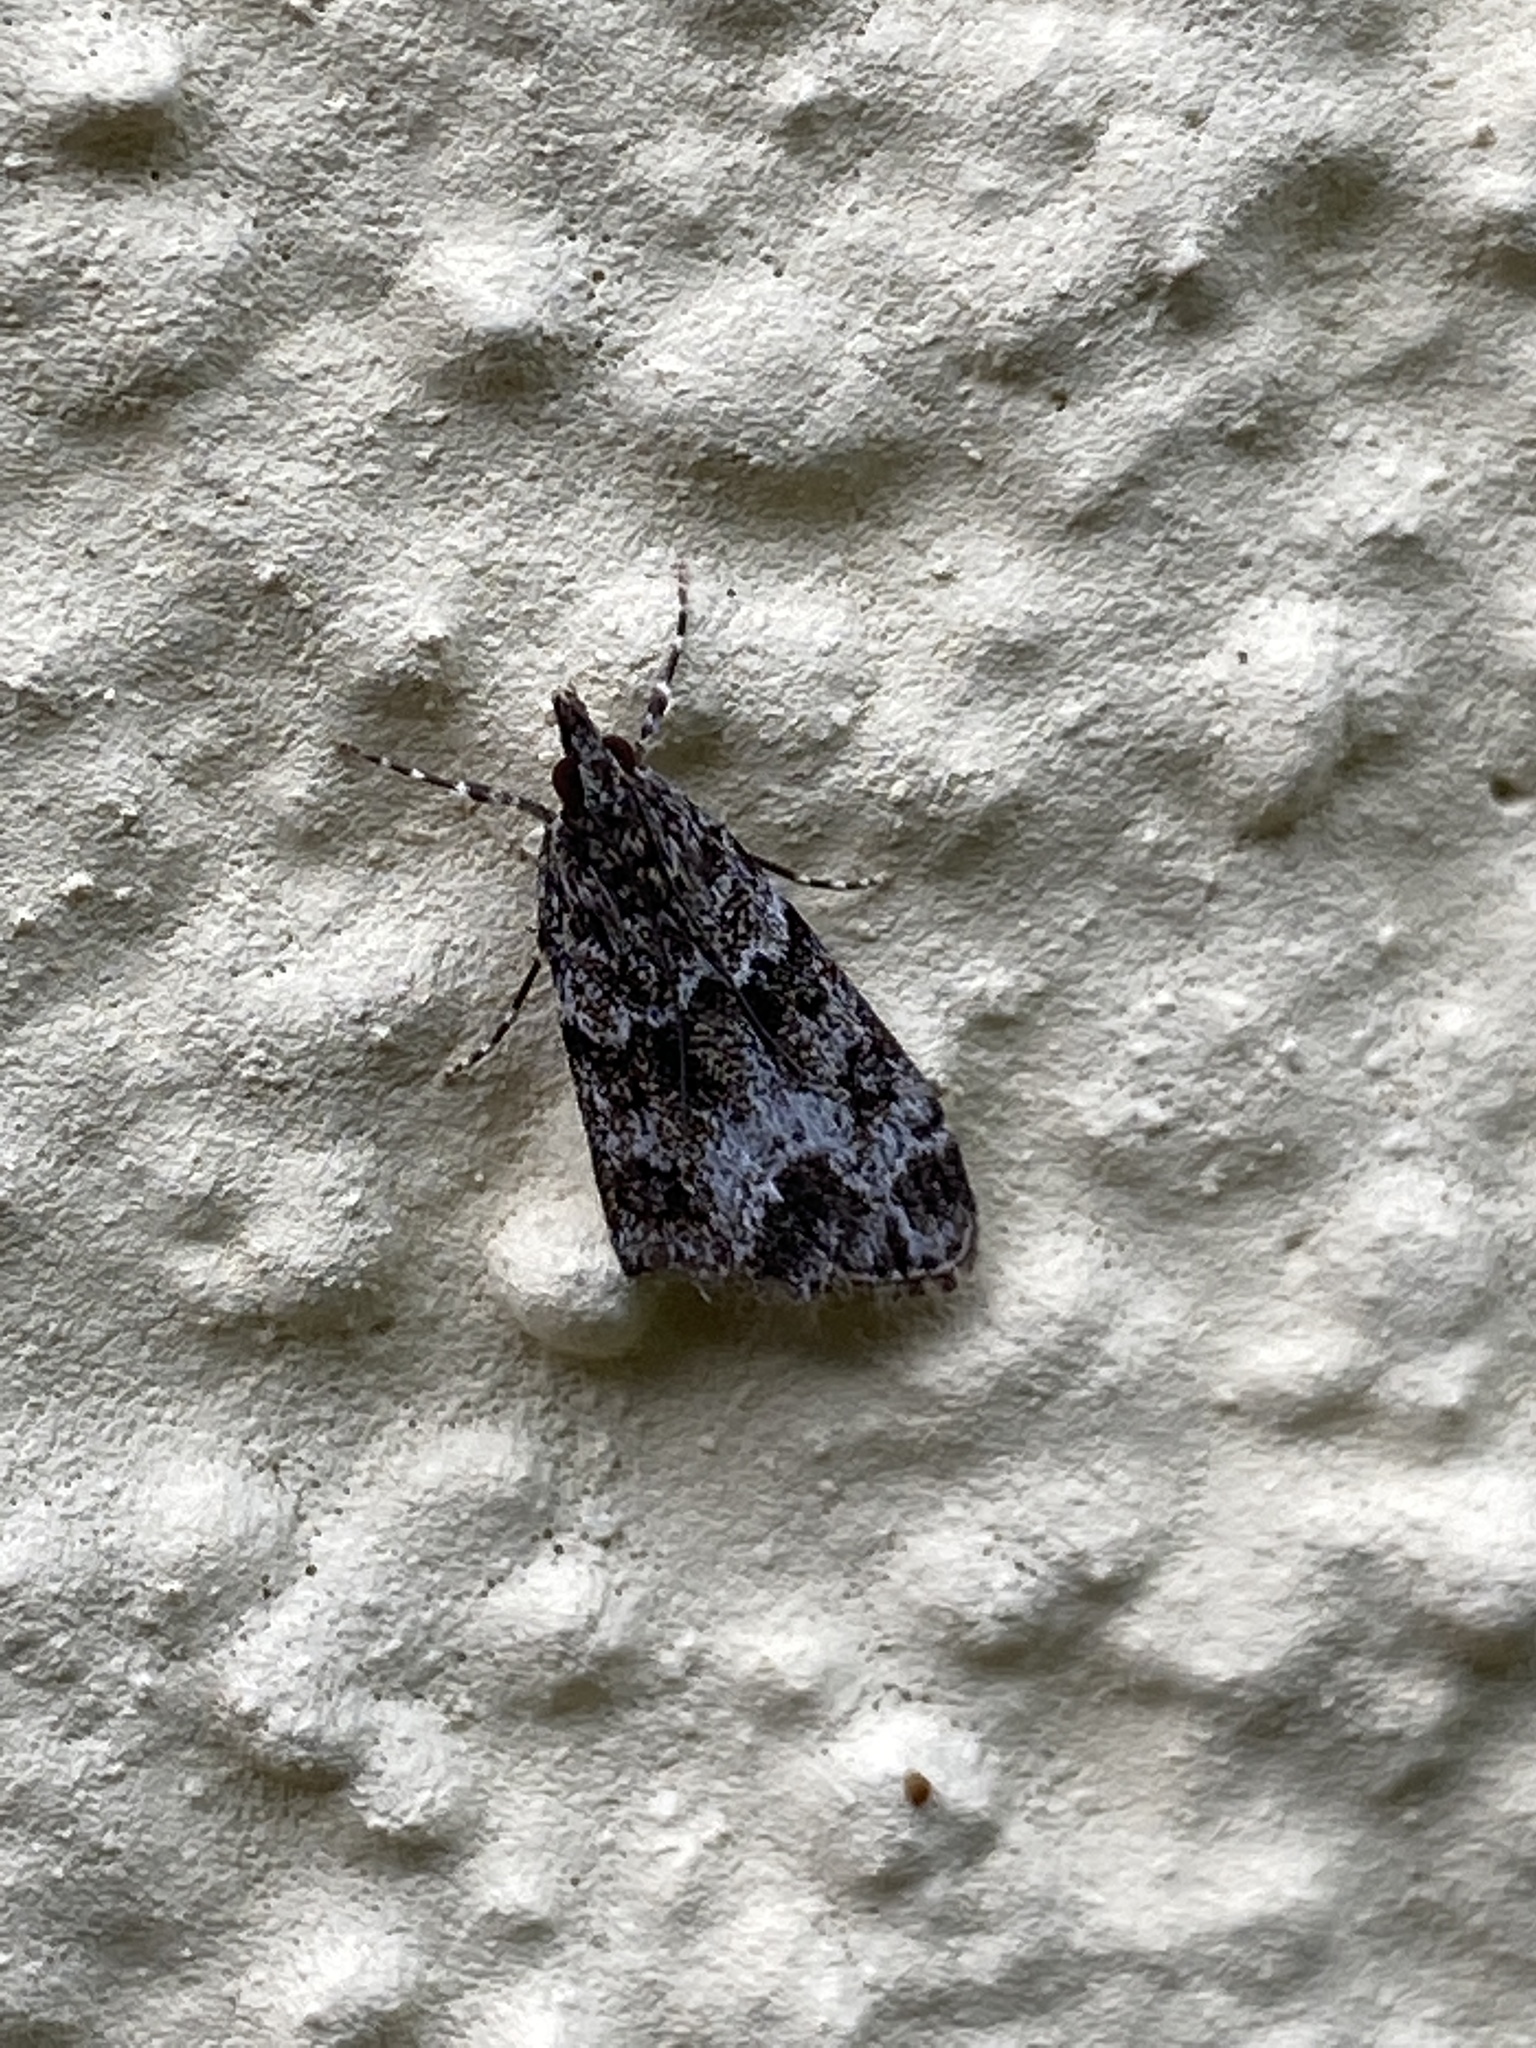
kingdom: Animalia
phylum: Arthropoda
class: Insecta
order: Lepidoptera
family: Crambidae
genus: Eudonia
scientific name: Eudonia mercurella
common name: Small grey
